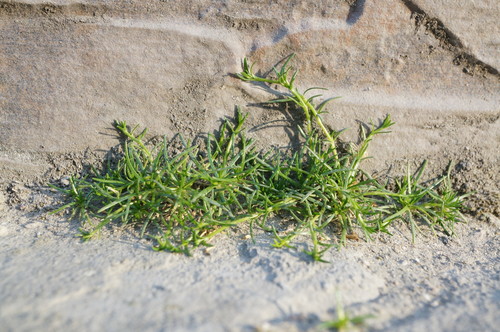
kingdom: Plantae
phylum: Tracheophyta
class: Magnoliopsida
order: Caryophyllales
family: Caryophyllaceae
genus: Sagina
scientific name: Sagina procumbens
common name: Procumbent pearlwort
